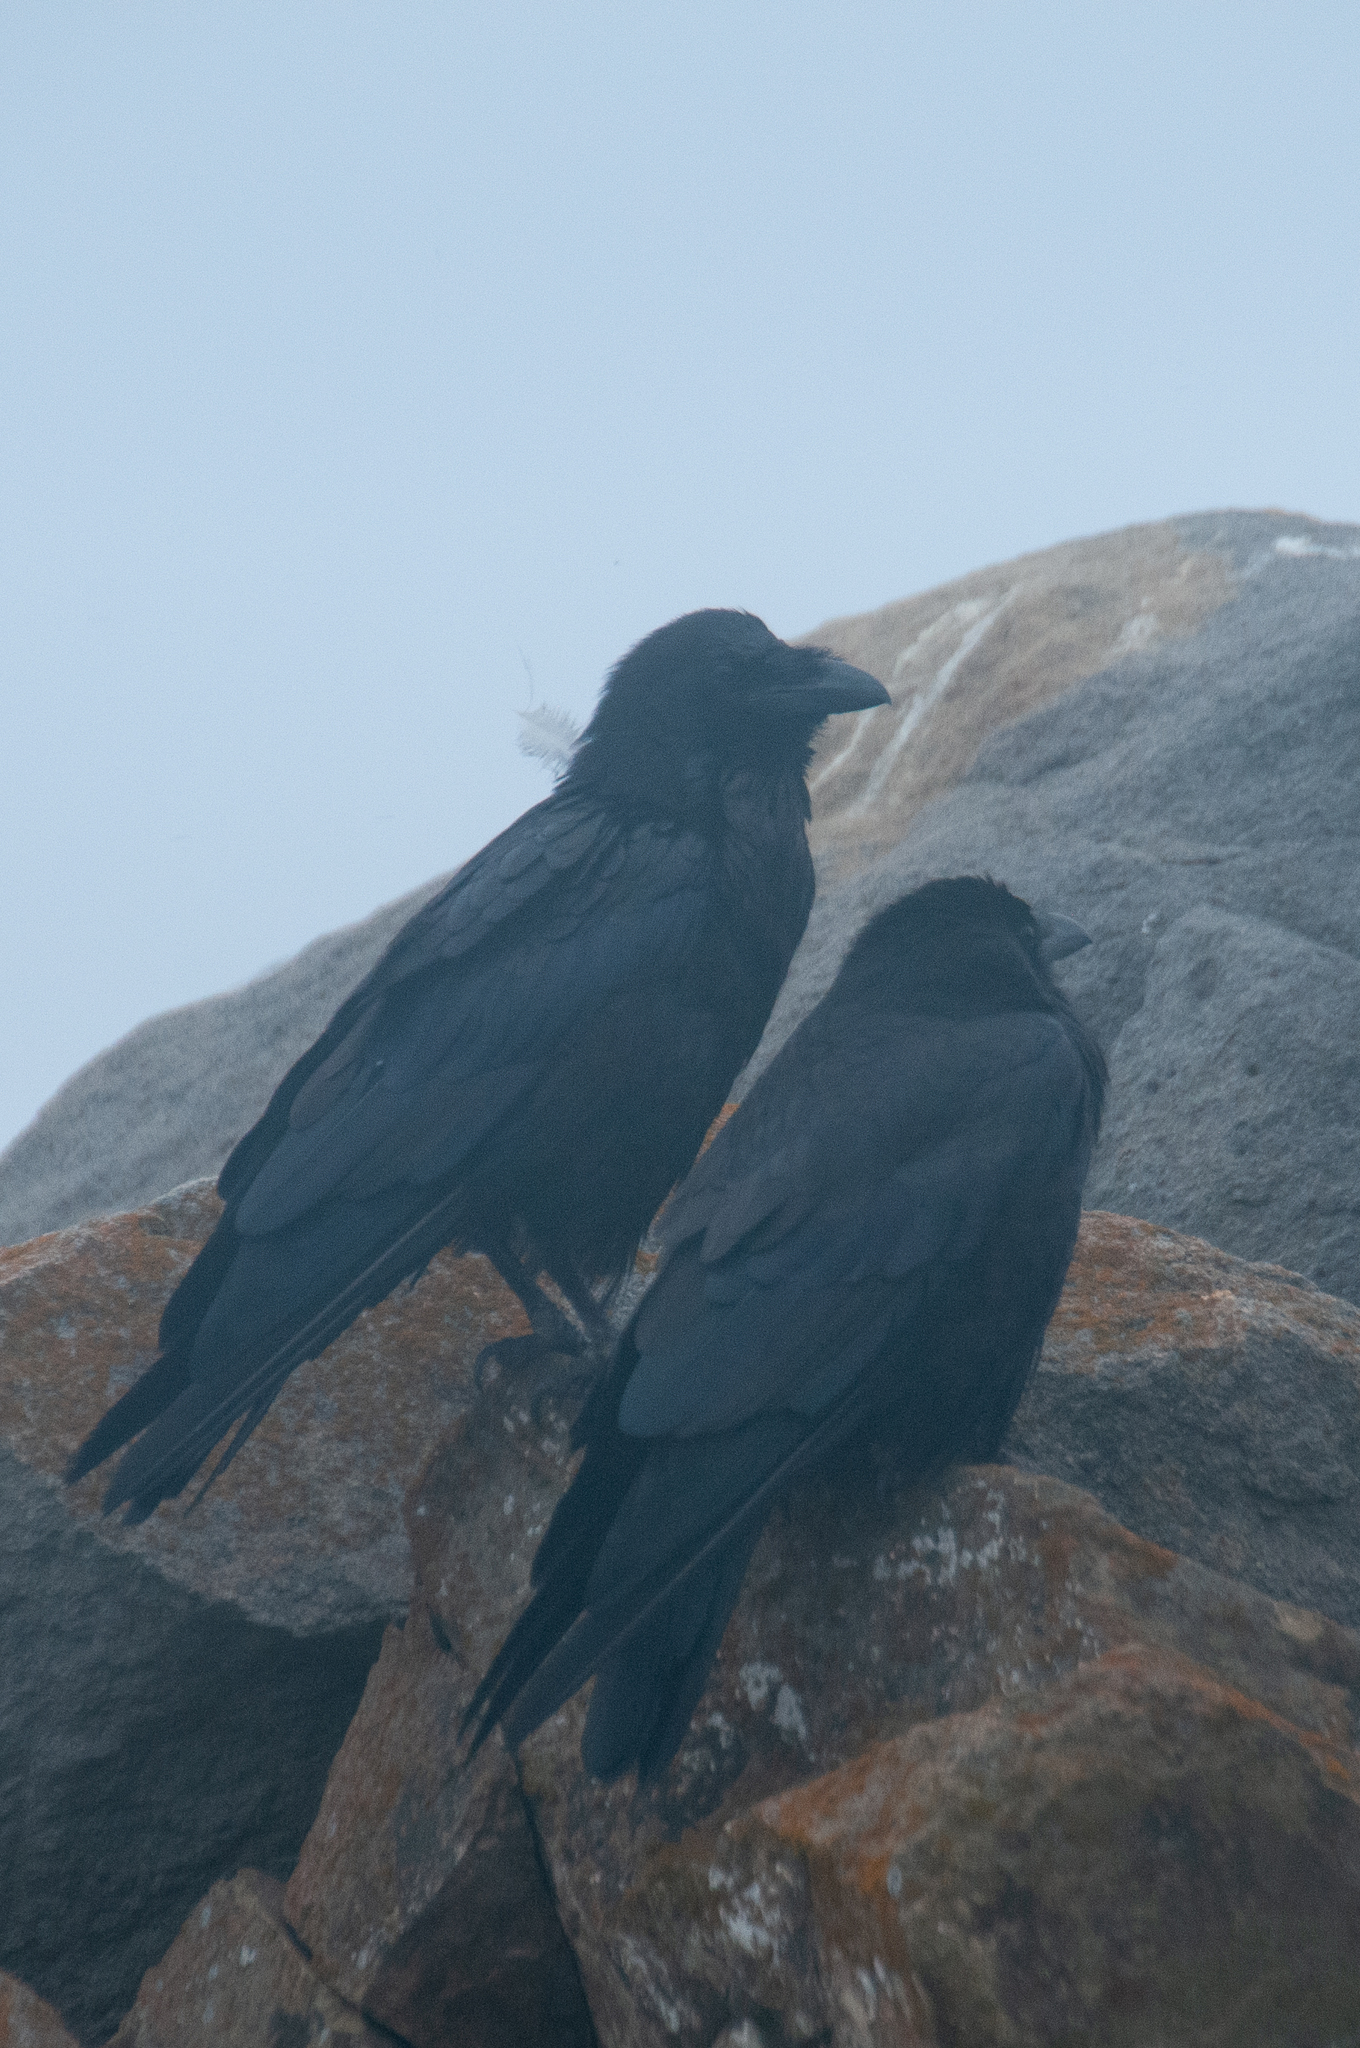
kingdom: Animalia
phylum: Chordata
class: Aves
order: Passeriformes
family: Corvidae
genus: Corvus
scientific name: Corvus corax
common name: Common raven
